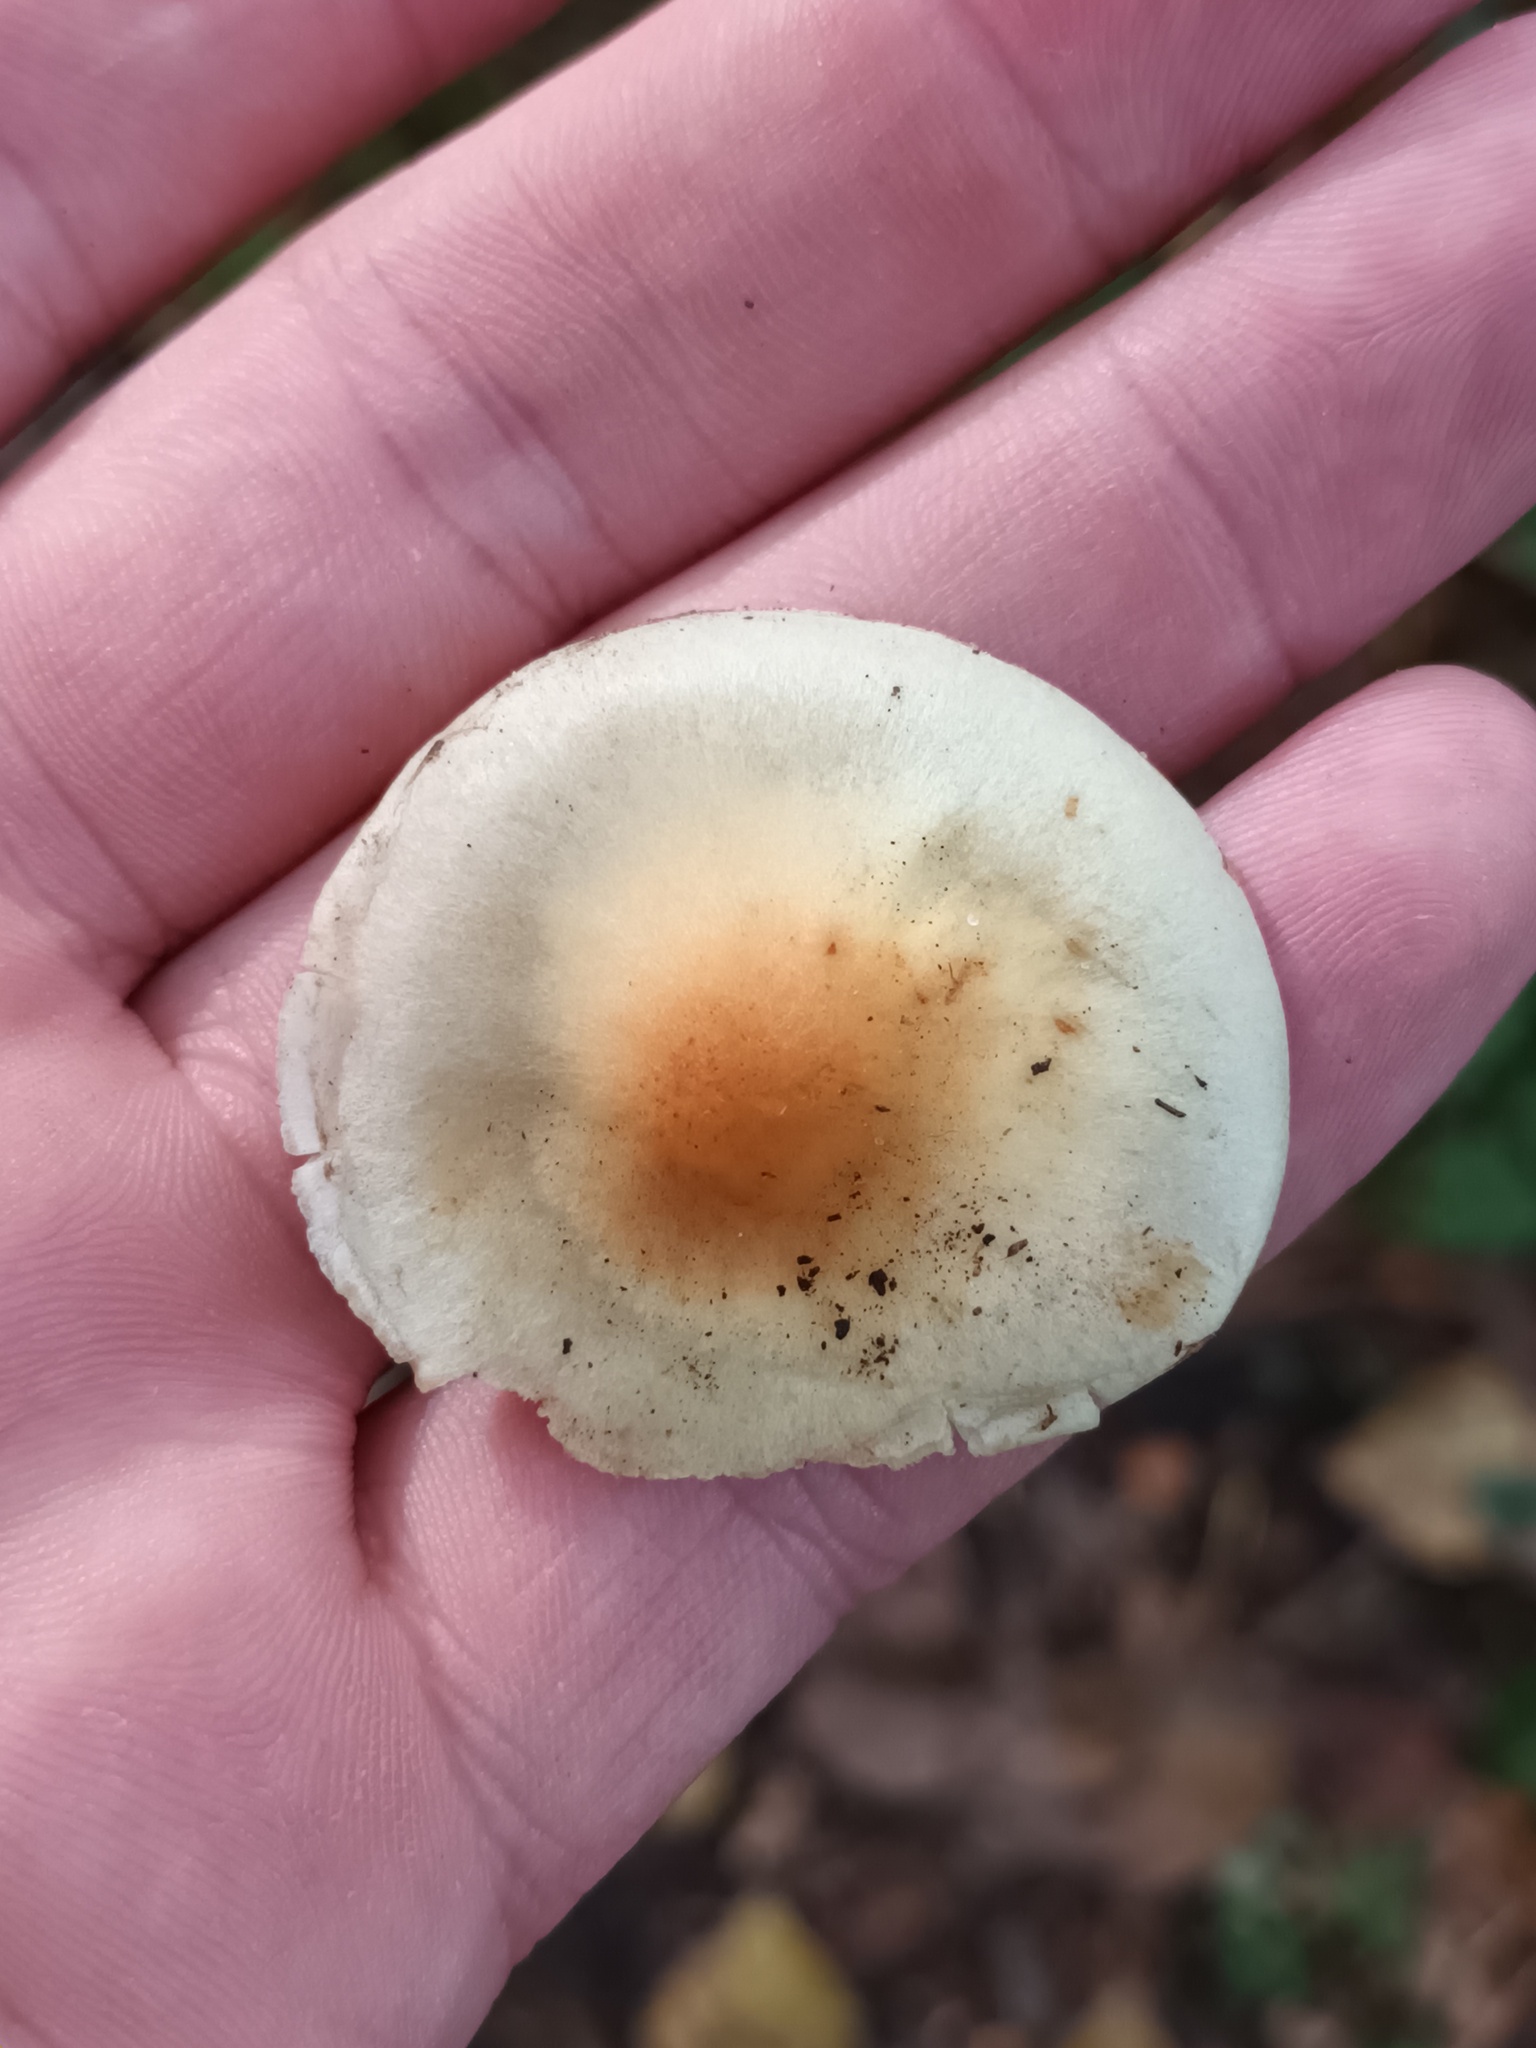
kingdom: Fungi
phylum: Basidiomycota
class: Agaricomycetes
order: Agaricales
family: Strophariaceae
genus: Hypholoma
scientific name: Hypholoma fasciculare
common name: Sulphur tuft
